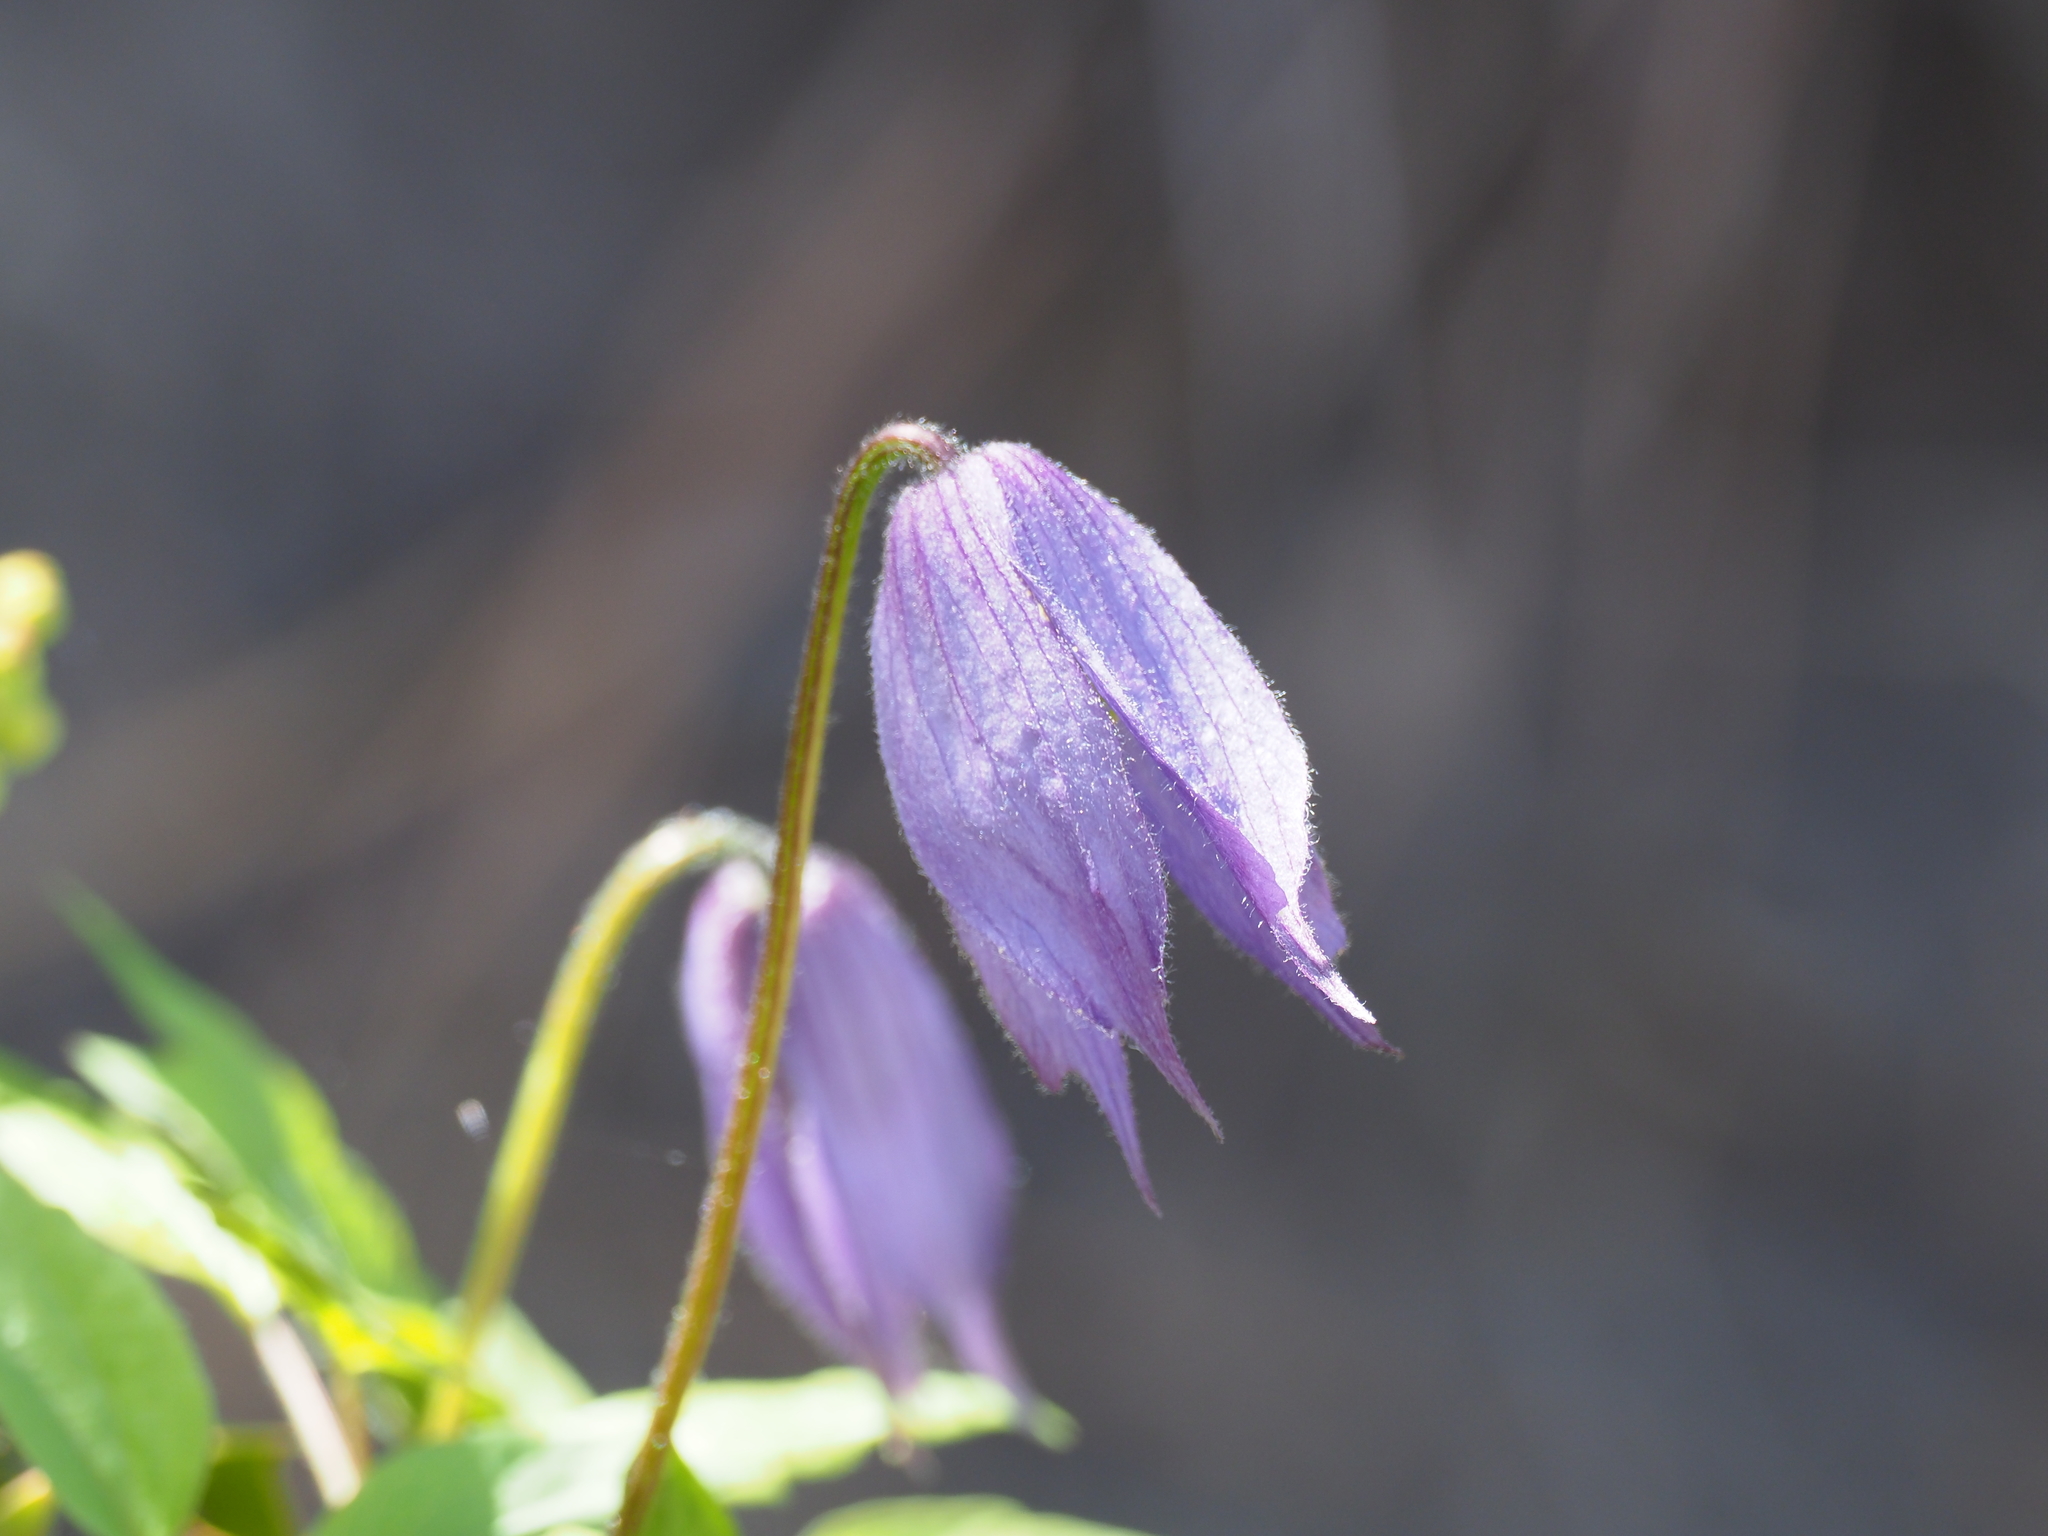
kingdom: Plantae
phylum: Tracheophyta
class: Magnoliopsida
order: Ranunculales
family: Ranunculaceae
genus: Clematis
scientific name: Clematis occidentalis
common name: Purple clematis
